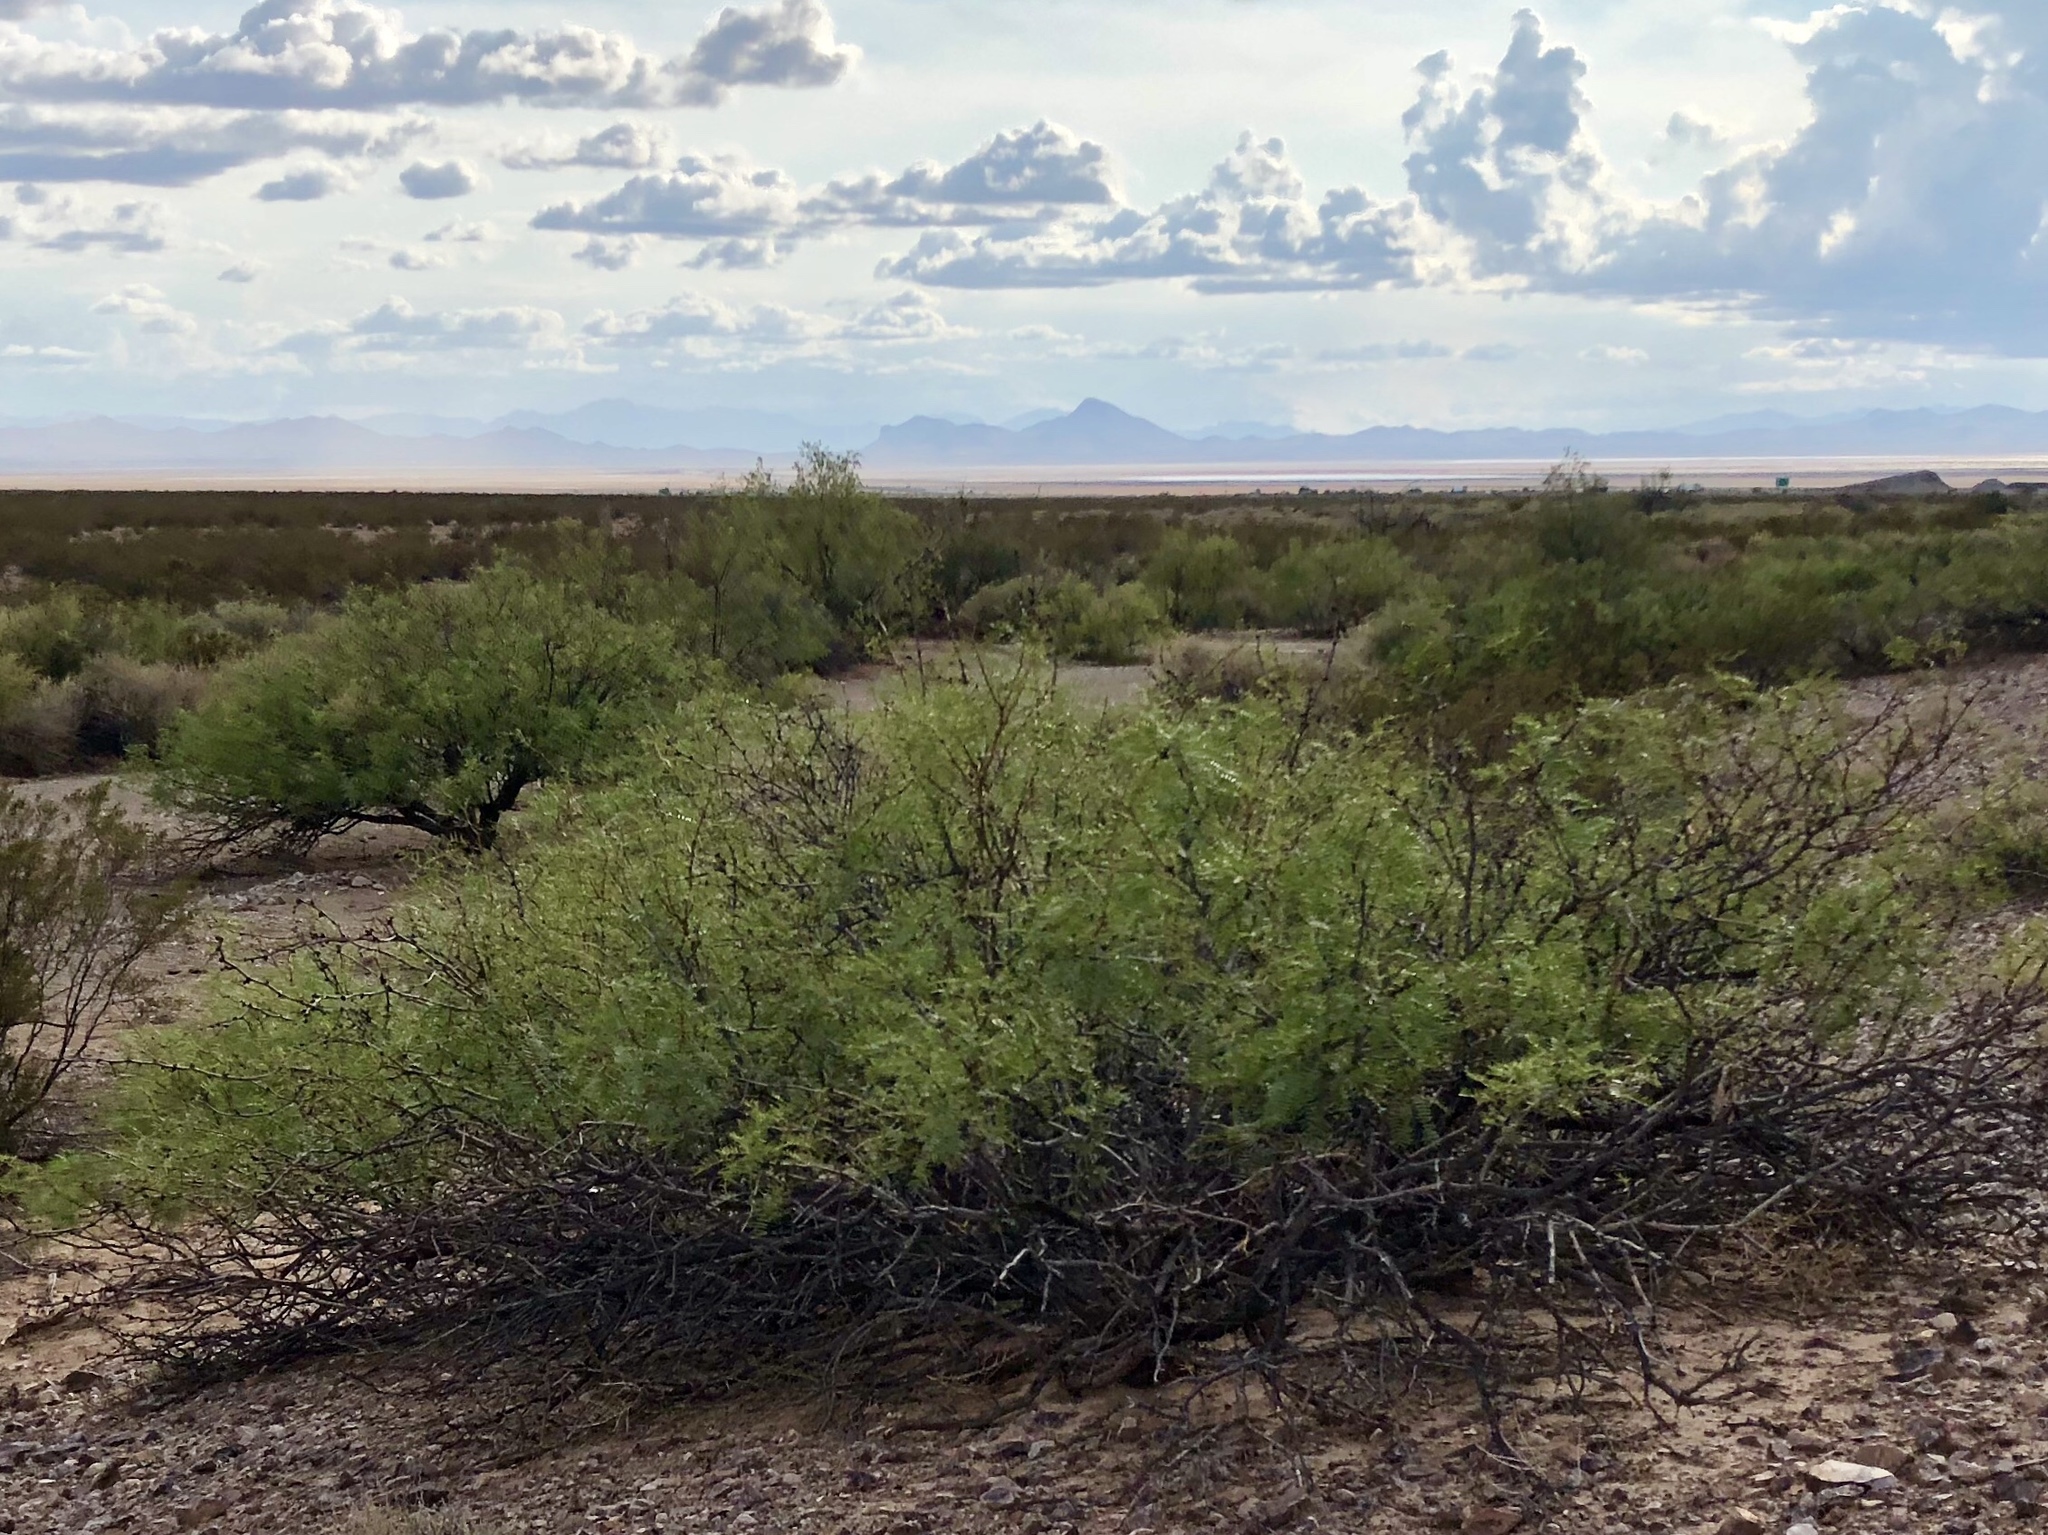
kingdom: Plantae
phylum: Tracheophyta
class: Magnoliopsida
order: Fabales
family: Fabaceae
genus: Prosopis
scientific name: Prosopis glandulosa
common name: Honey mesquite
